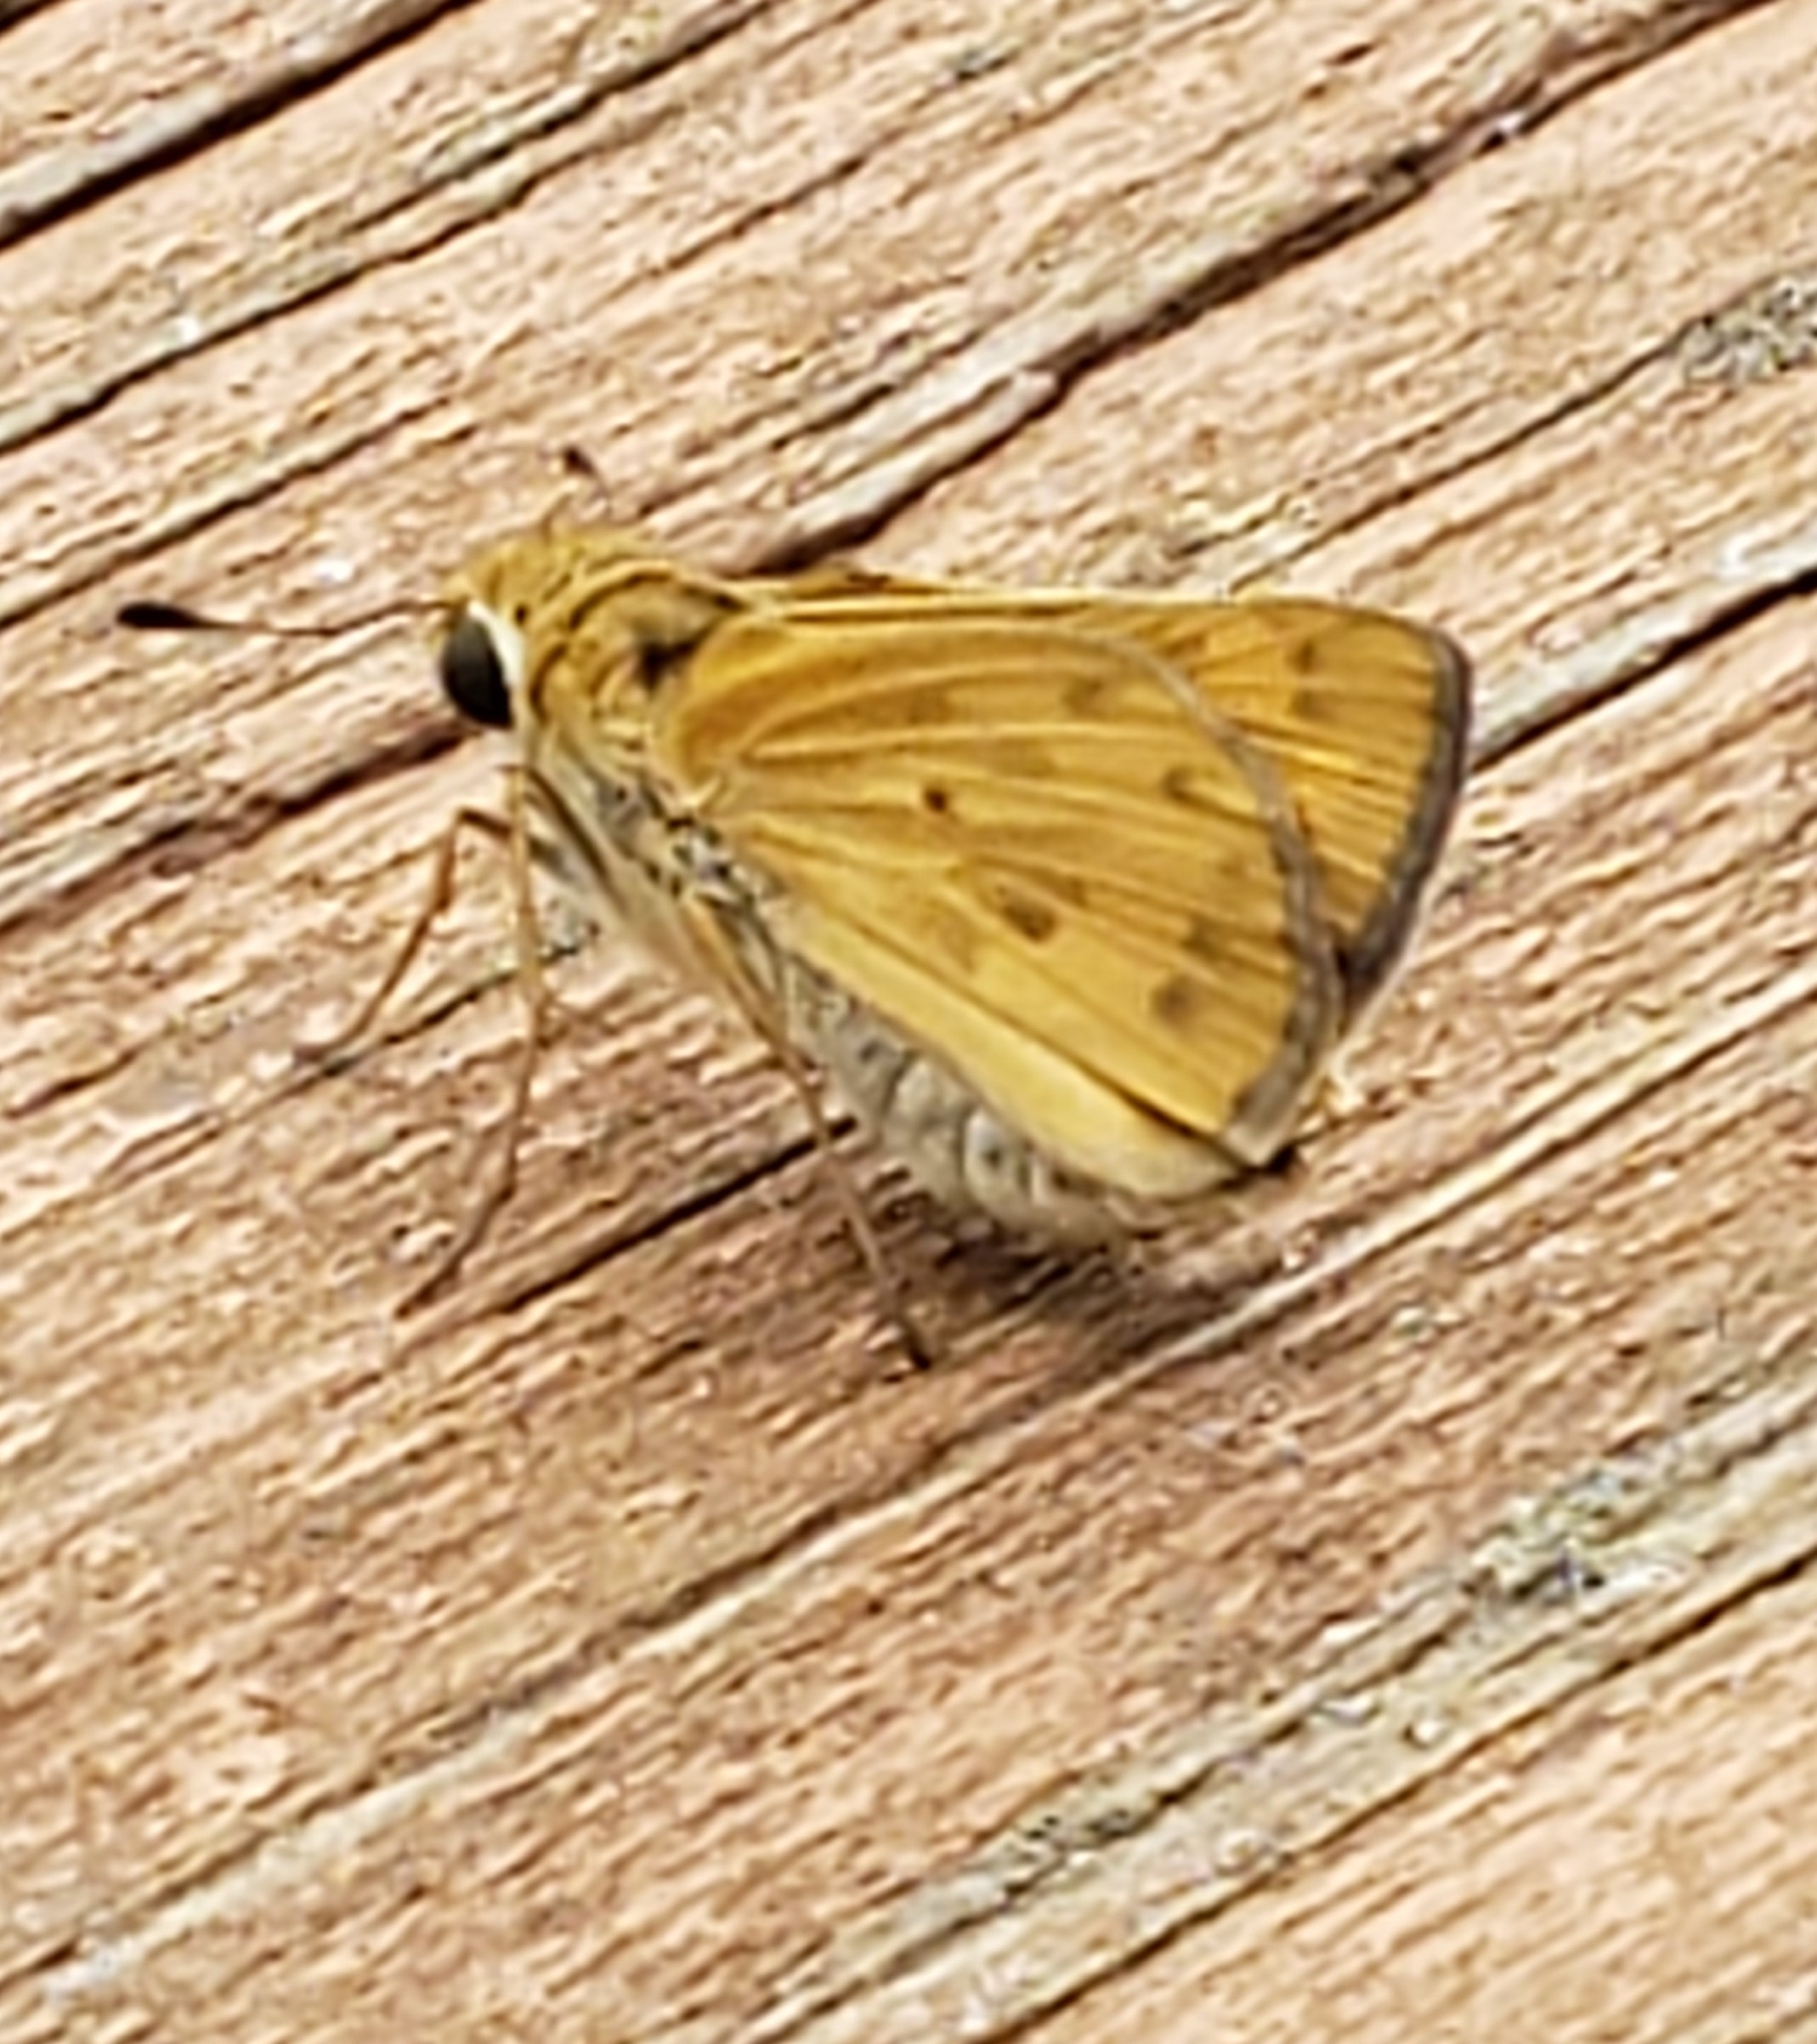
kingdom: Animalia
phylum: Arthropoda
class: Insecta
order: Lepidoptera
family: Hesperiidae
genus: Hylephila
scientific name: Hylephila phyleus
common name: Fiery skipper
